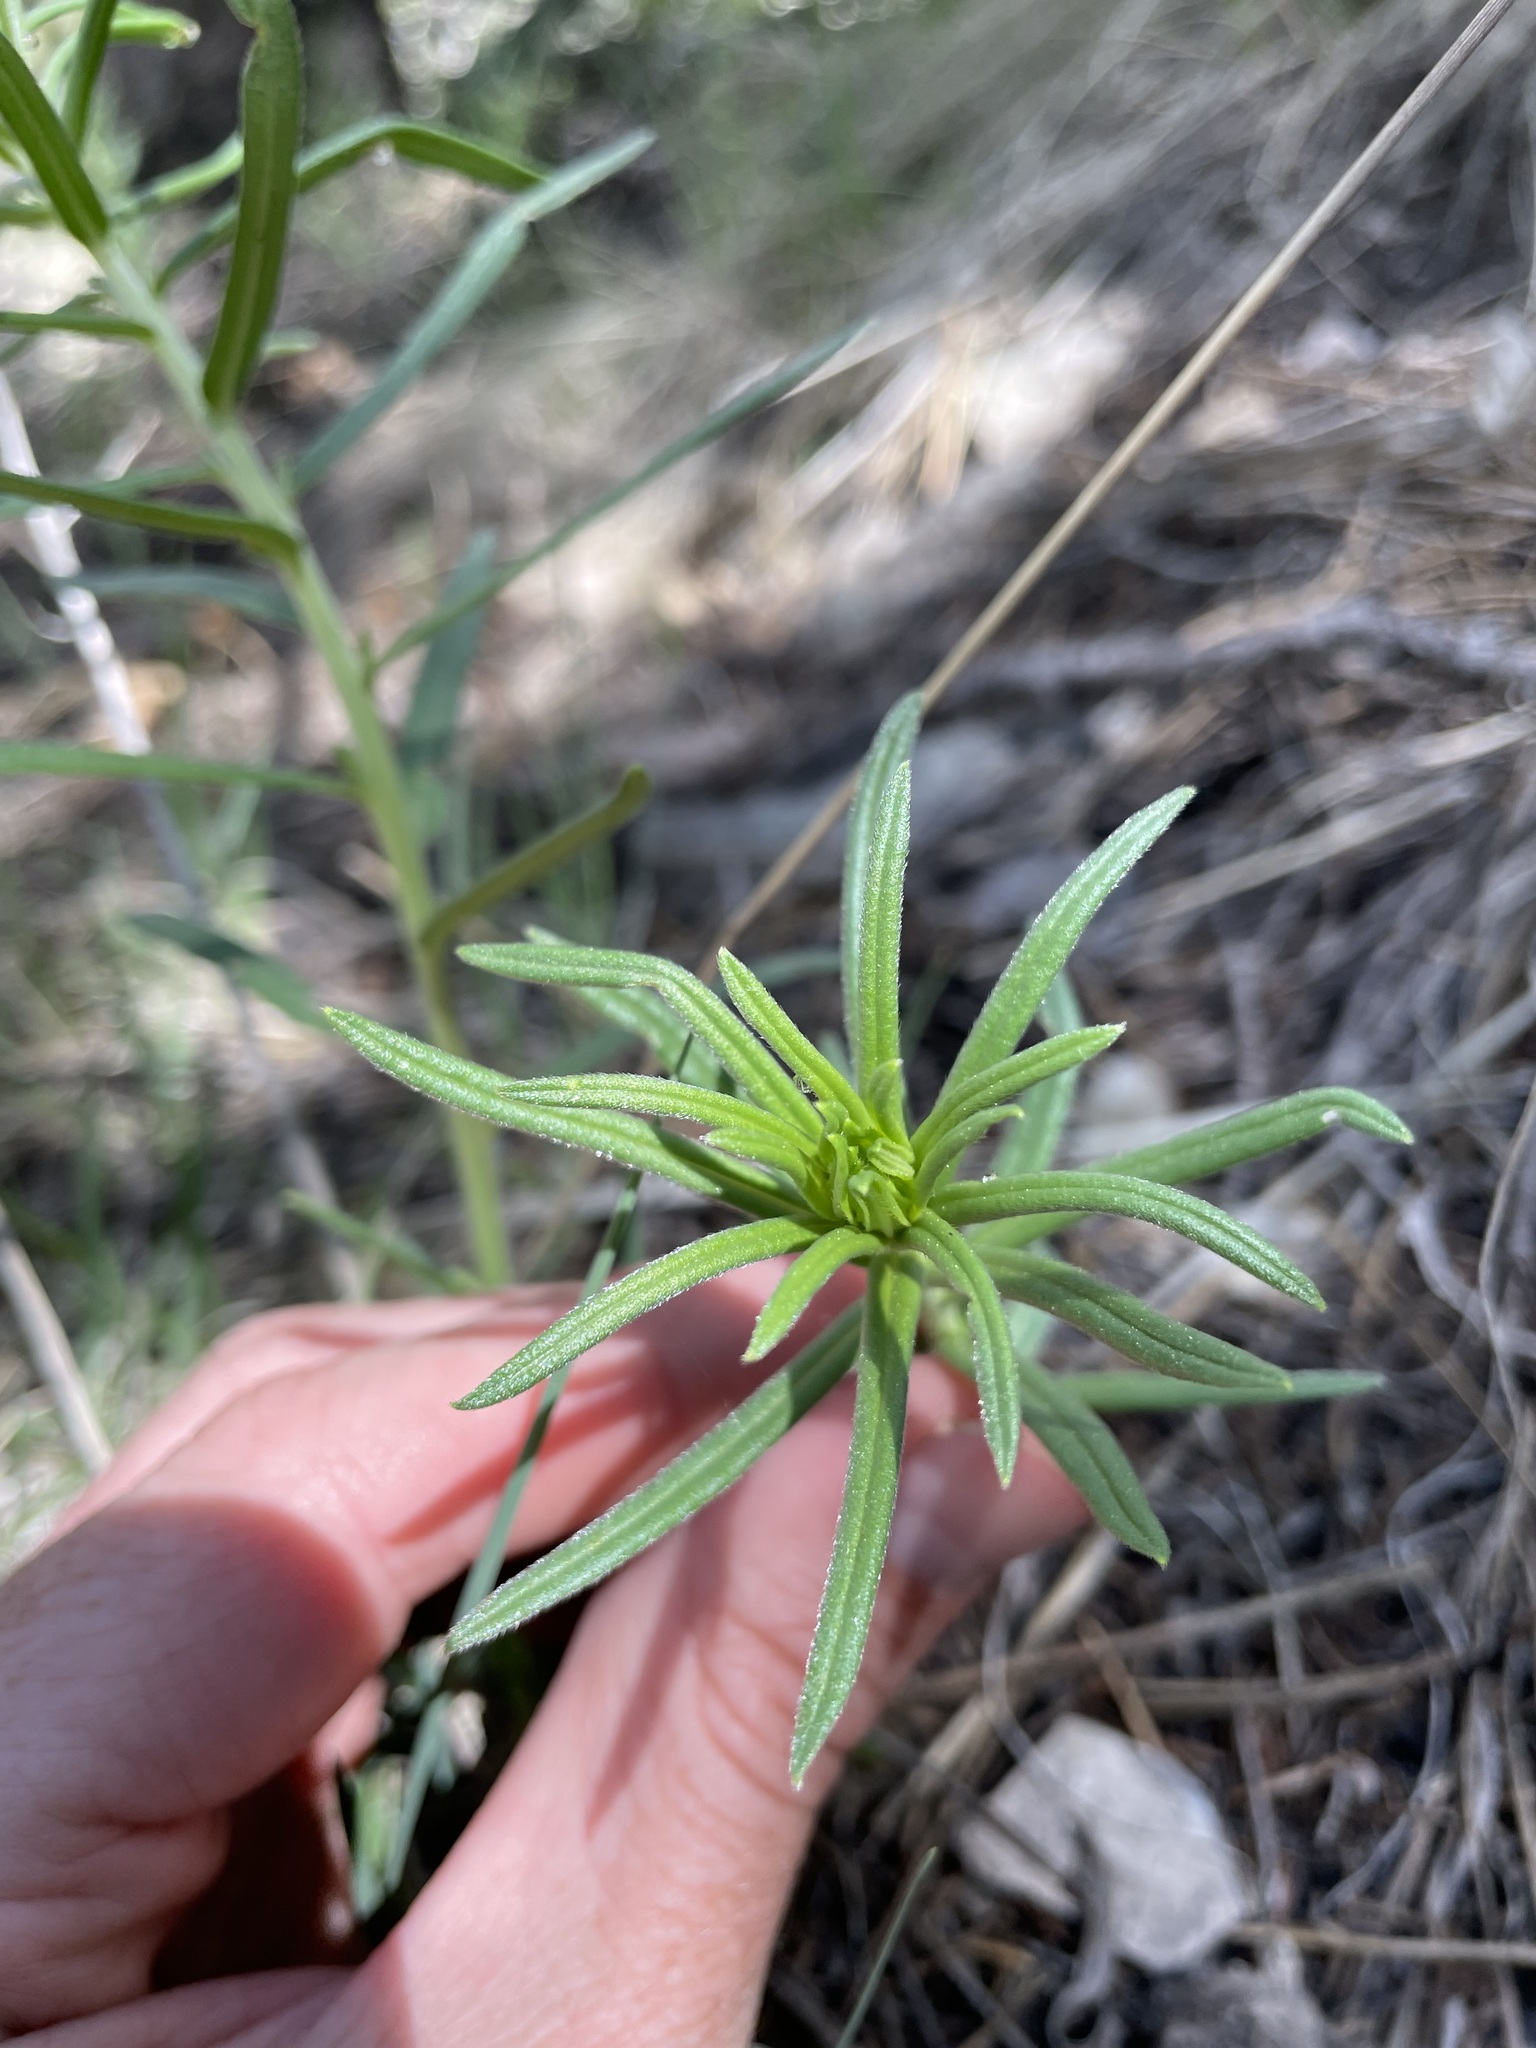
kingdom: Plantae
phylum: Tracheophyta
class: Magnoliopsida
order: Boraginales
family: Boraginaceae
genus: Lithospermum
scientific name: Lithospermum multiflorum
